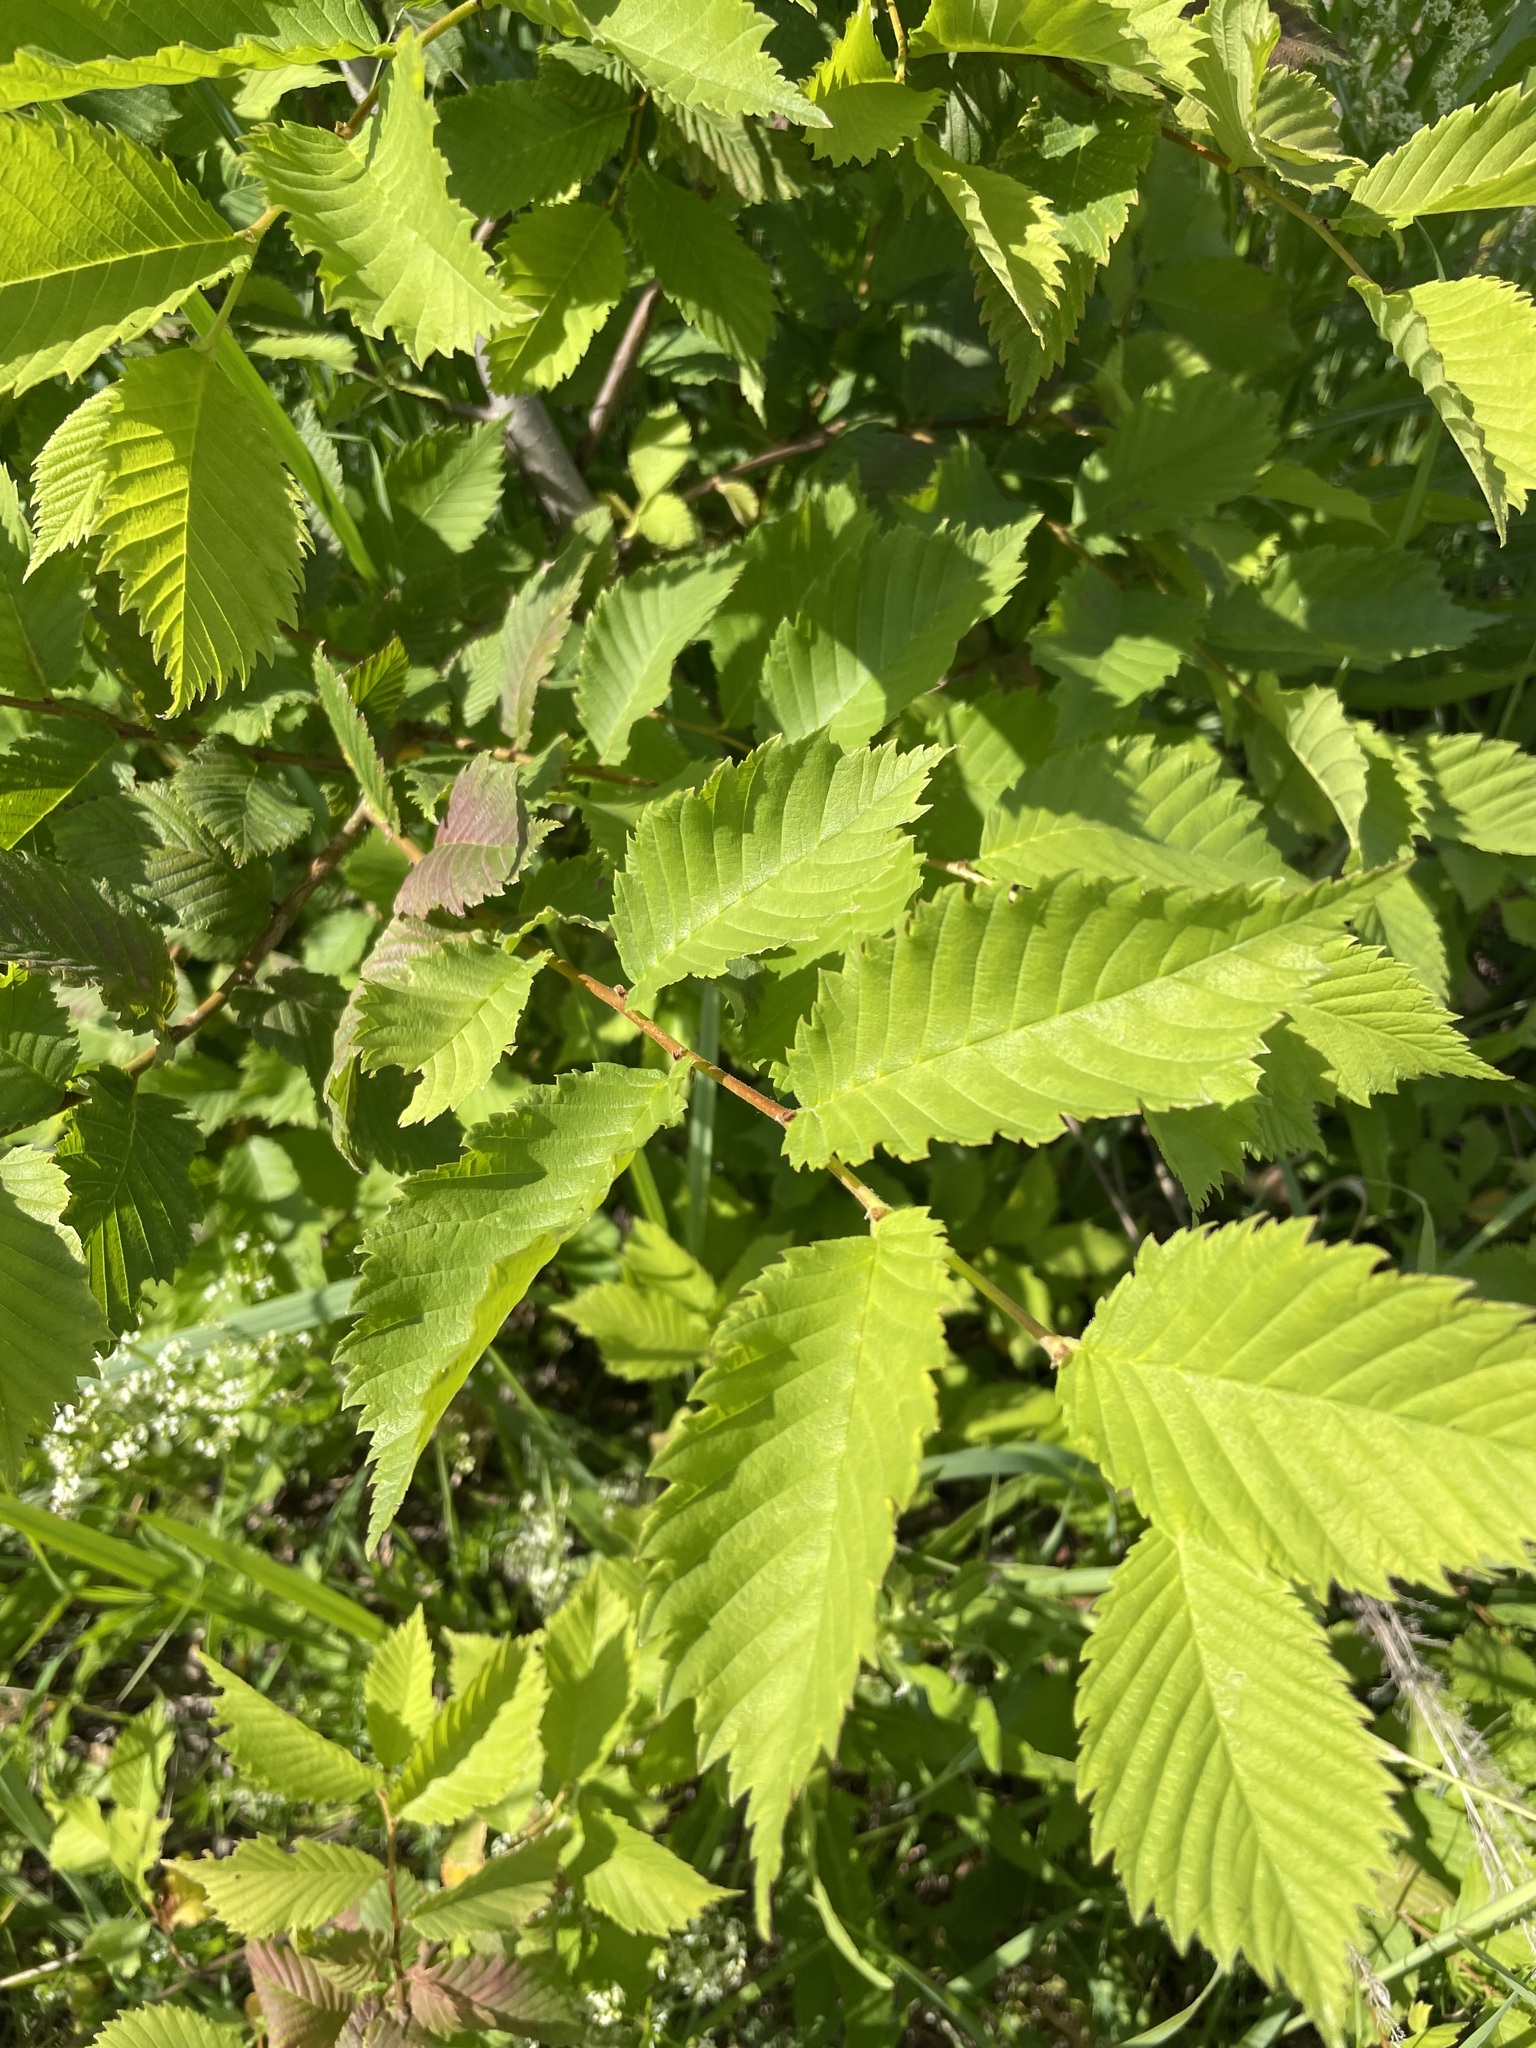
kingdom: Plantae
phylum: Tracheophyta
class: Magnoliopsida
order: Rosales
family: Ulmaceae
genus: Ulmus
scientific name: Ulmus laevis
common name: European white-elm
